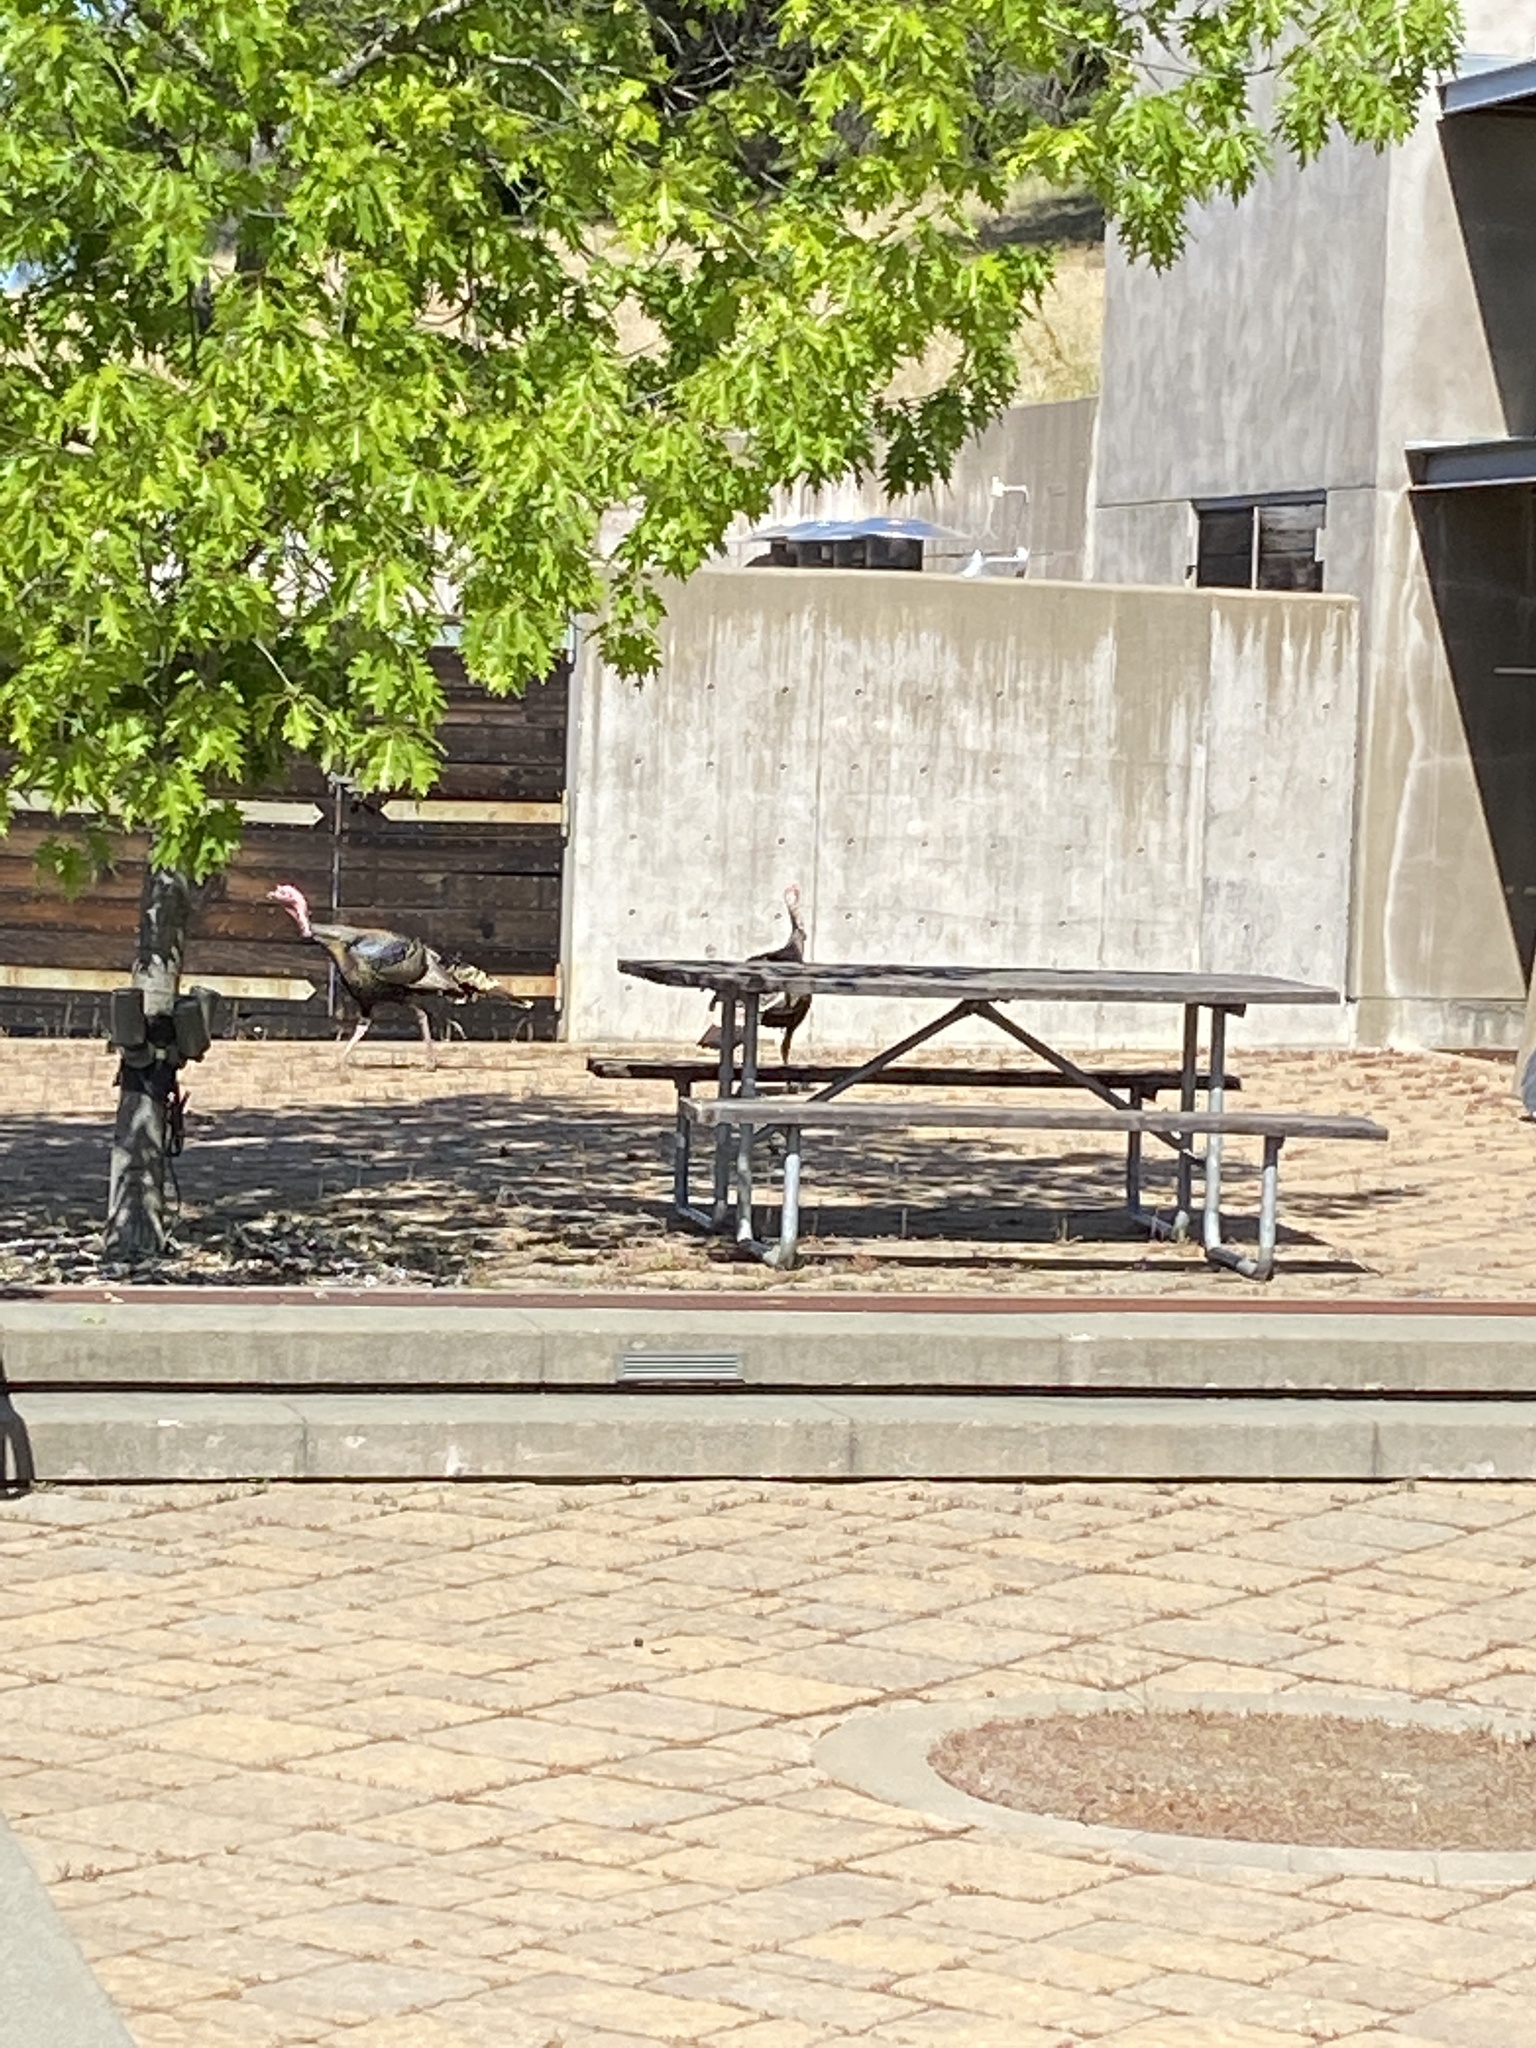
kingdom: Animalia
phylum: Chordata
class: Aves
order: Galliformes
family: Phasianidae
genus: Meleagris
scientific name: Meleagris gallopavo
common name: Wild turkey
